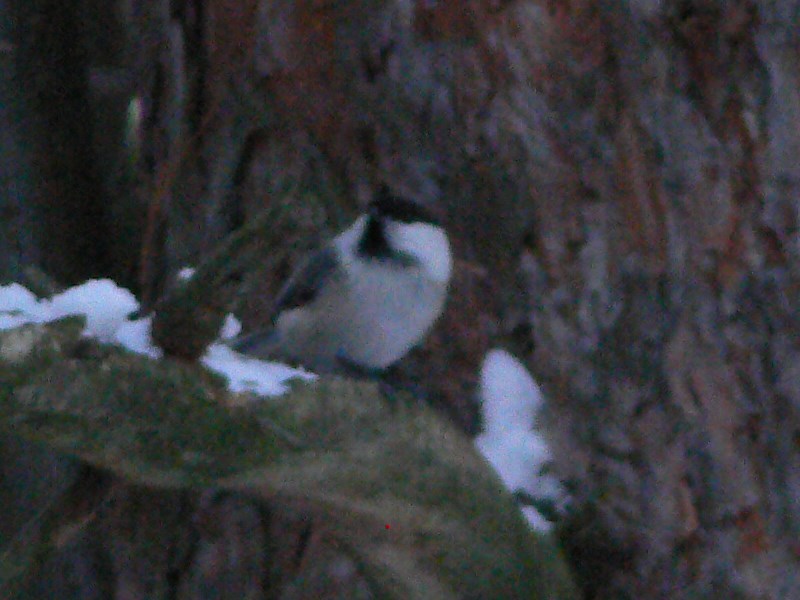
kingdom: Animalia
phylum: Chordata
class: Aves
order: Passeriformes
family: Paridae
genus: Poecile
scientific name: Poecile montanus
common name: Willow tit
